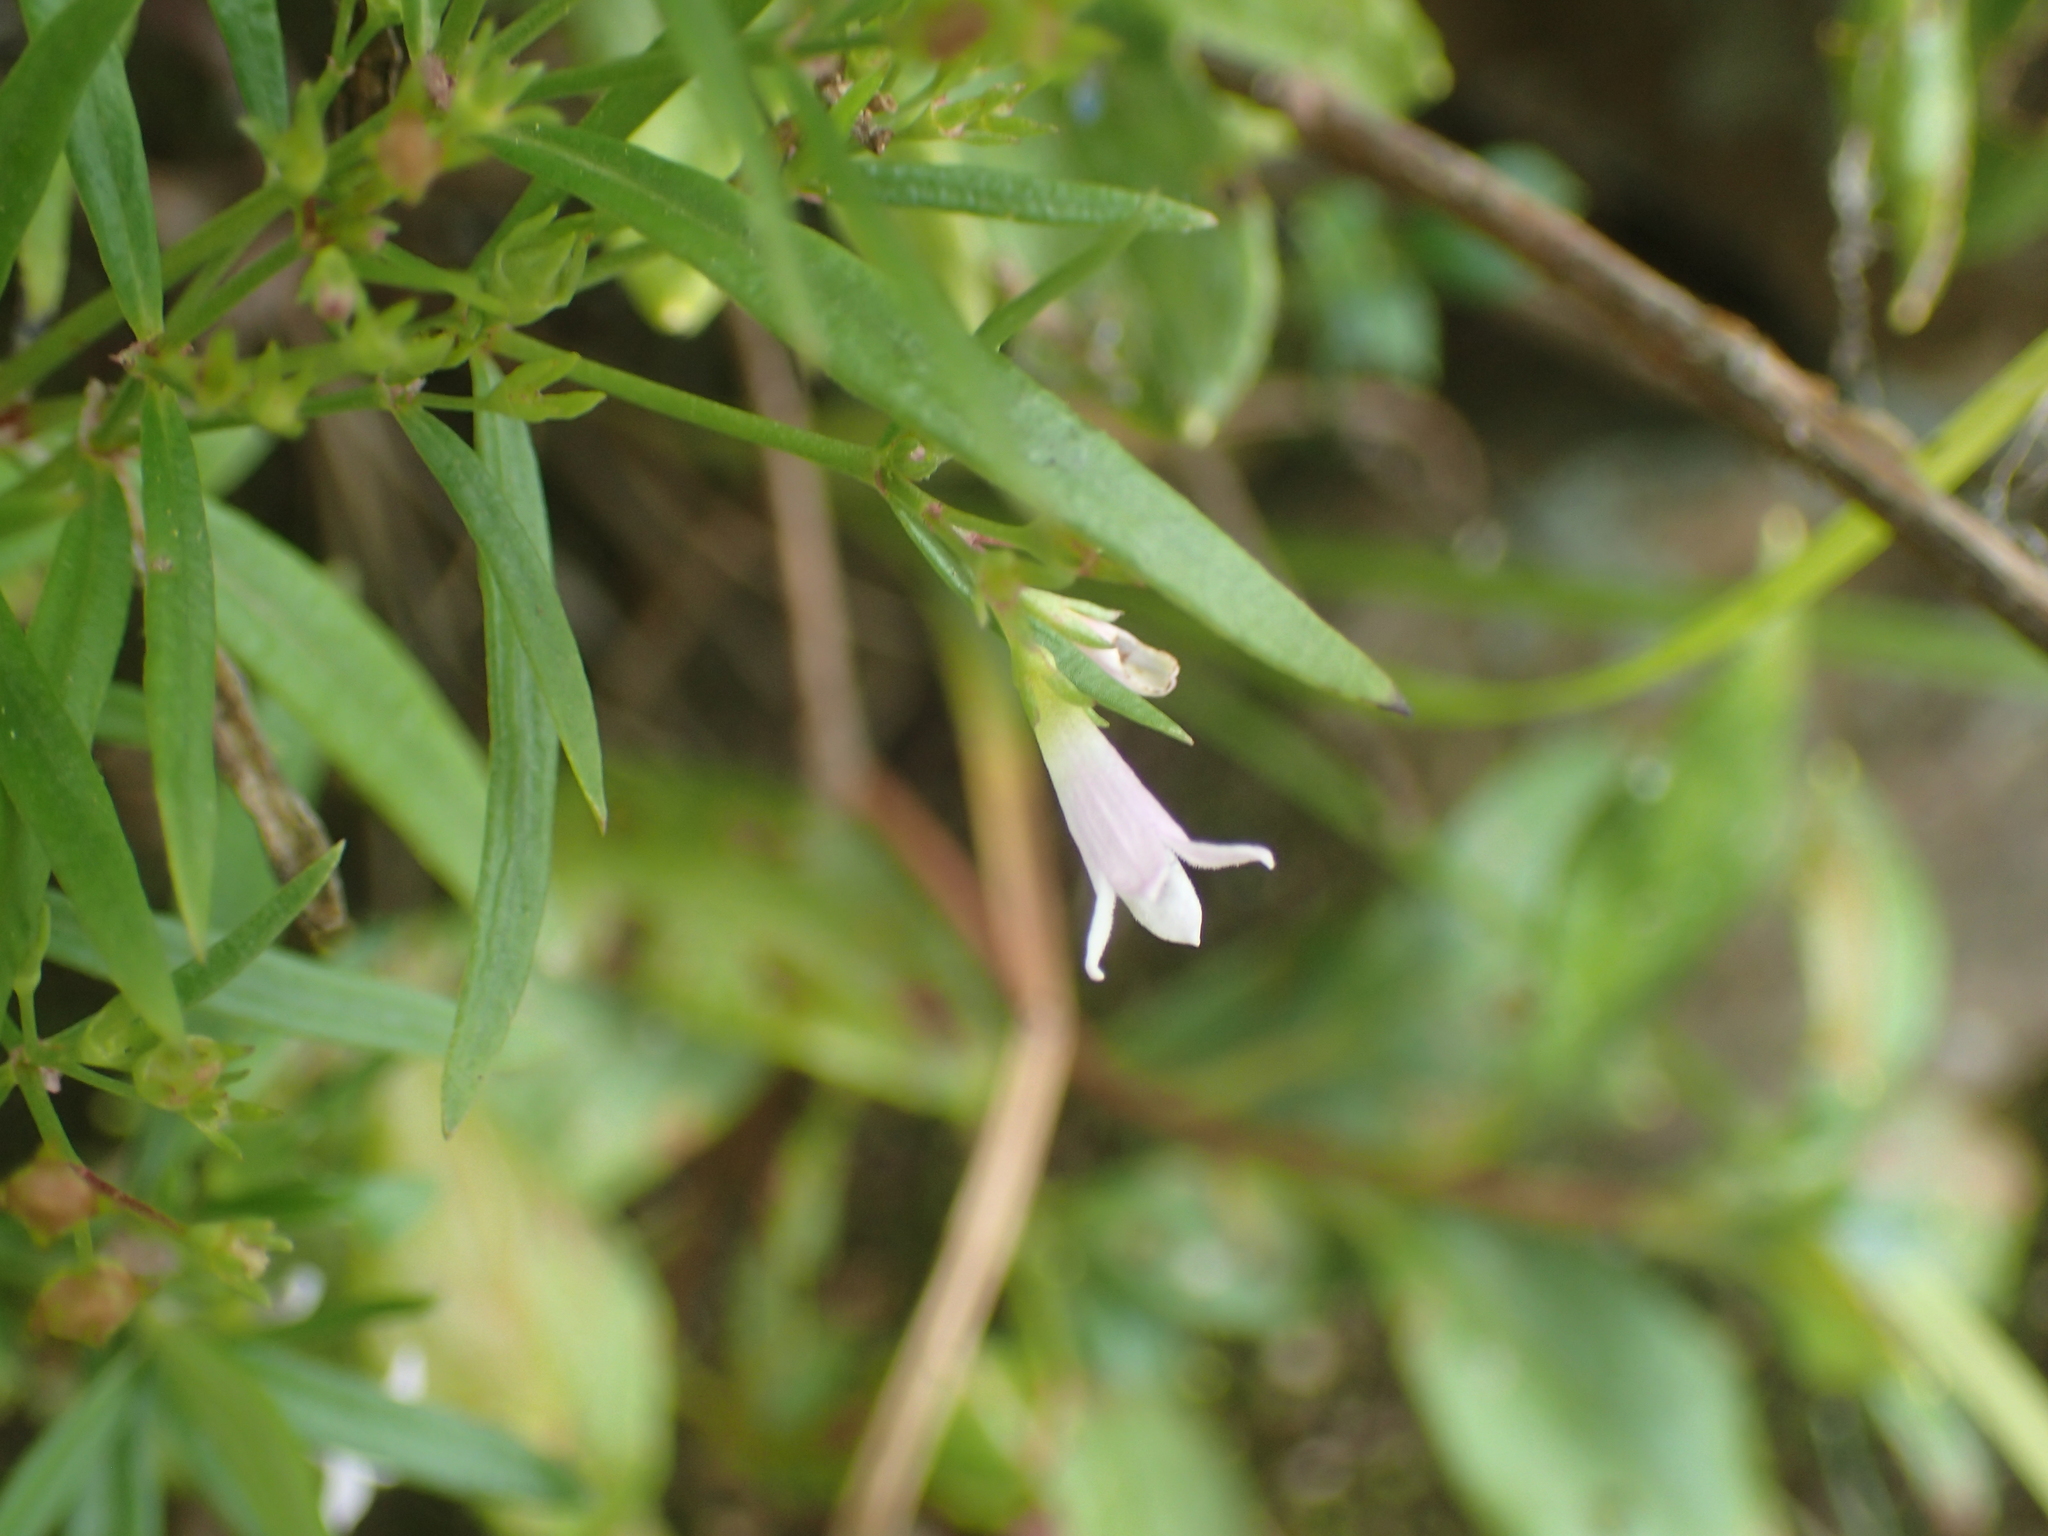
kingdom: Plantae
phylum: Tracheophyta
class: Magnoliopsida
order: Gentianales
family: Rubiaceae
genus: Houstonia
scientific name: Houstonia longifolia
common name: Long-leaved bluets
